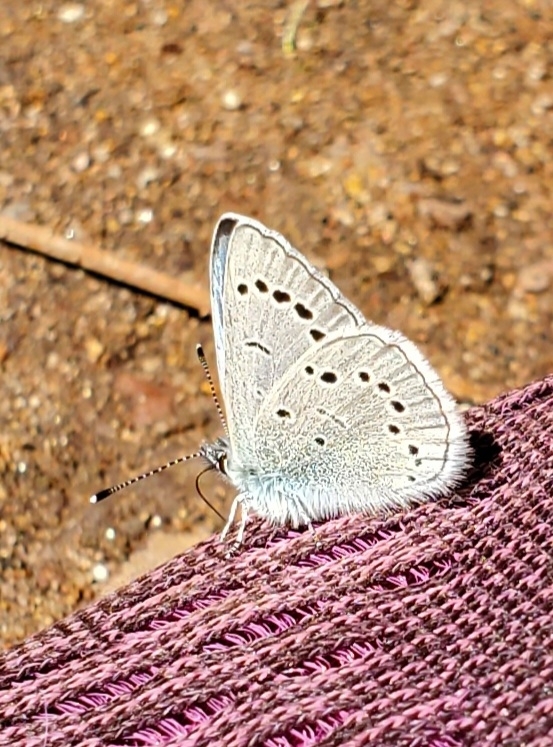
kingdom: Animalia
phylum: Arthropoda
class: Insecta
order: Lepidoptera
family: Lycaenidae
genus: Glaucopsyche
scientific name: Glaucopsyche lygdamus
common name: Silvery blue
